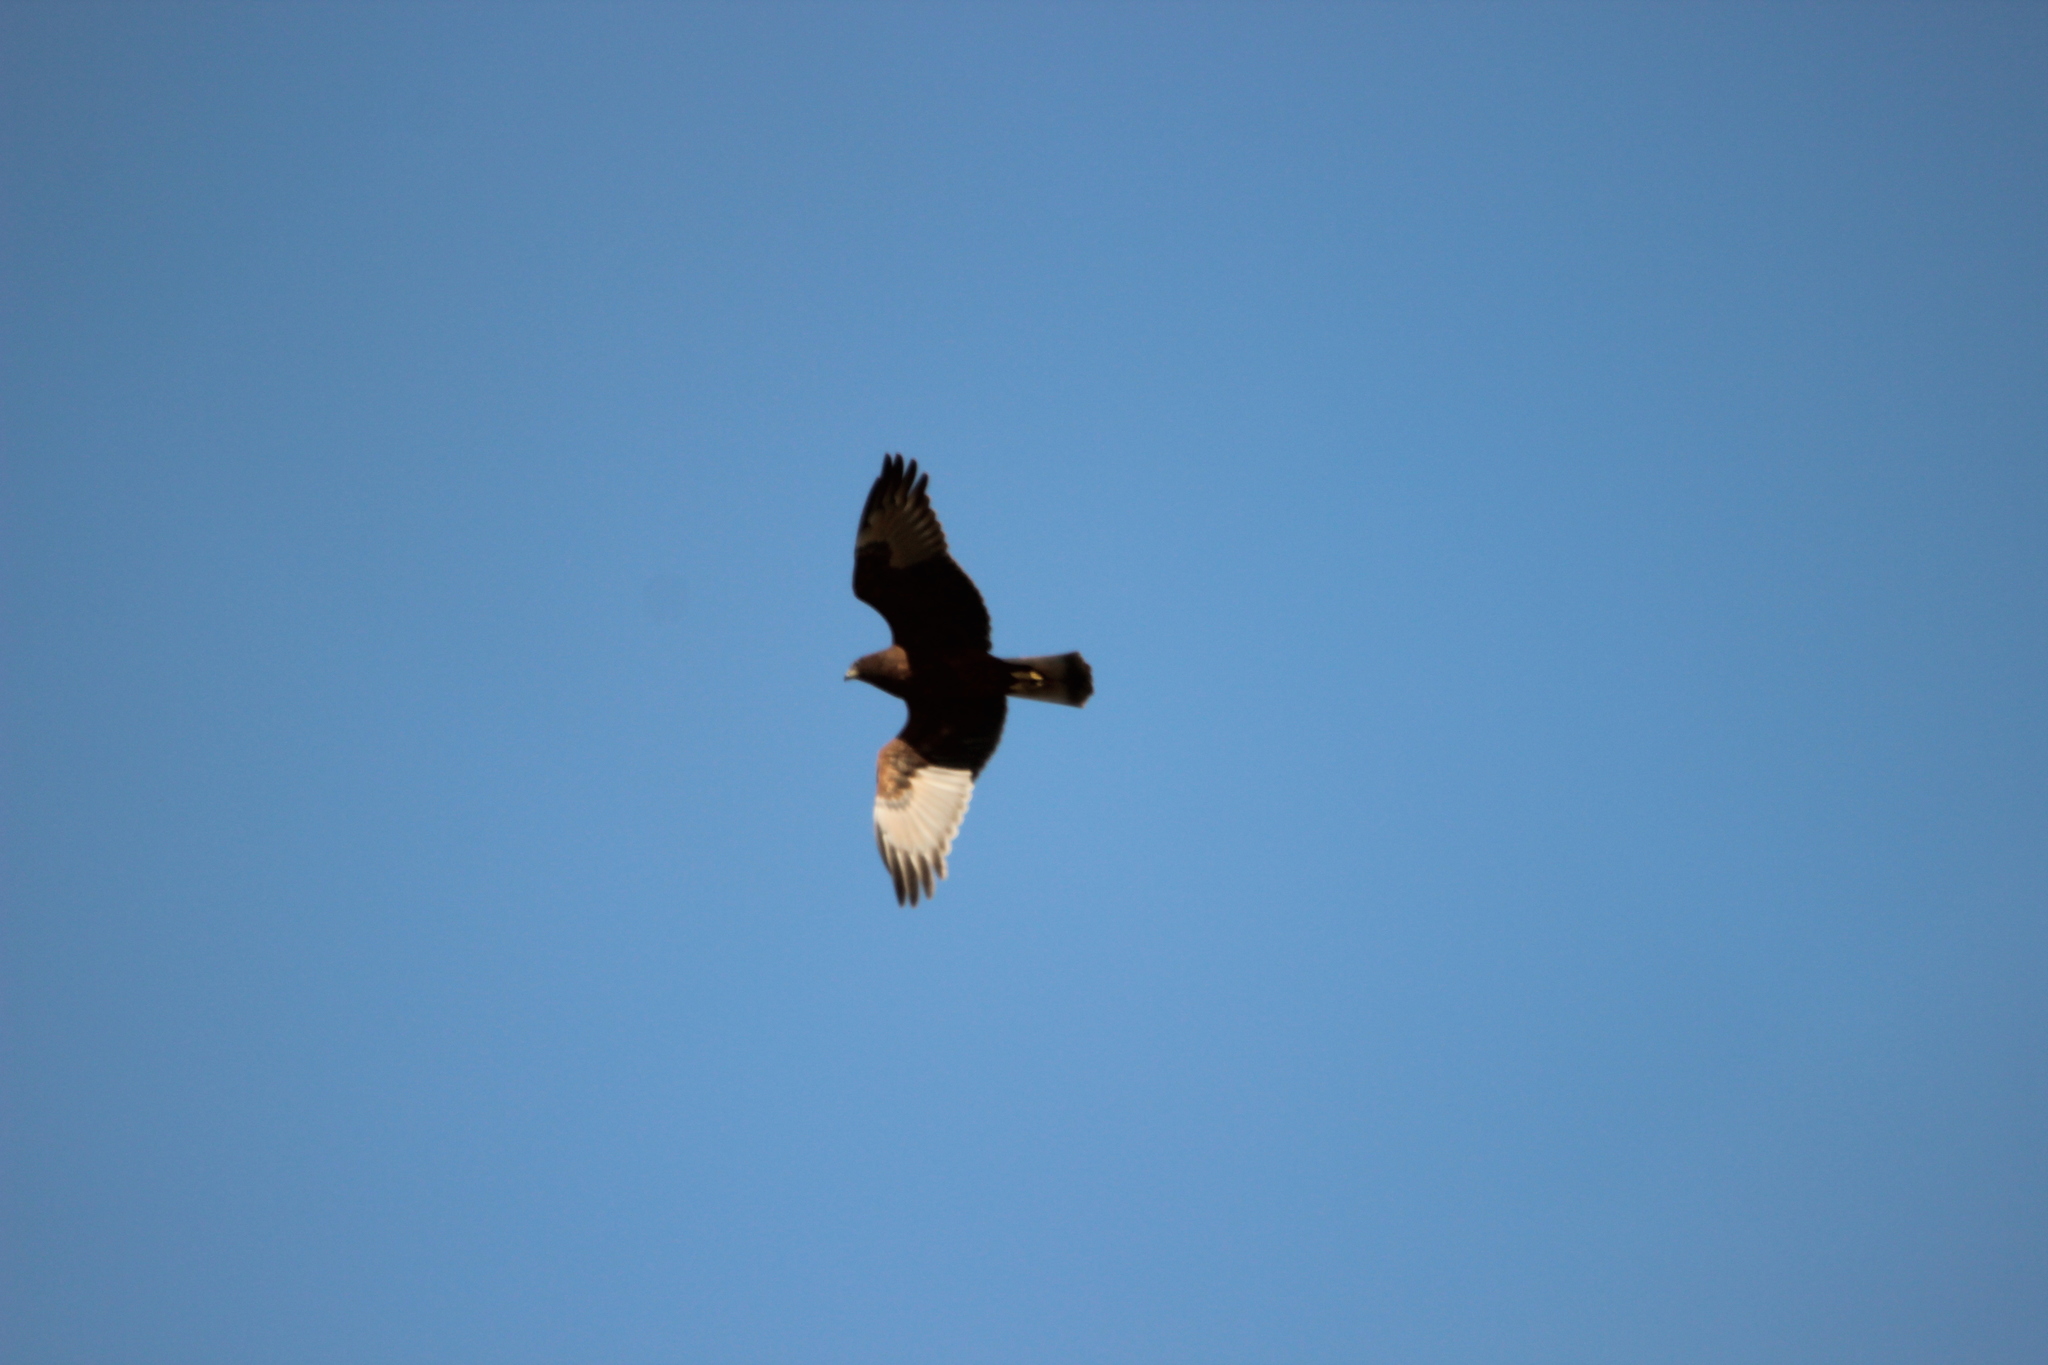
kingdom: Animalia
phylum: Chordata
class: Aves
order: Accipitriformes
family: Accipitridae
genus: Circus
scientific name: Circus approximans
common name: Swamp harrier
